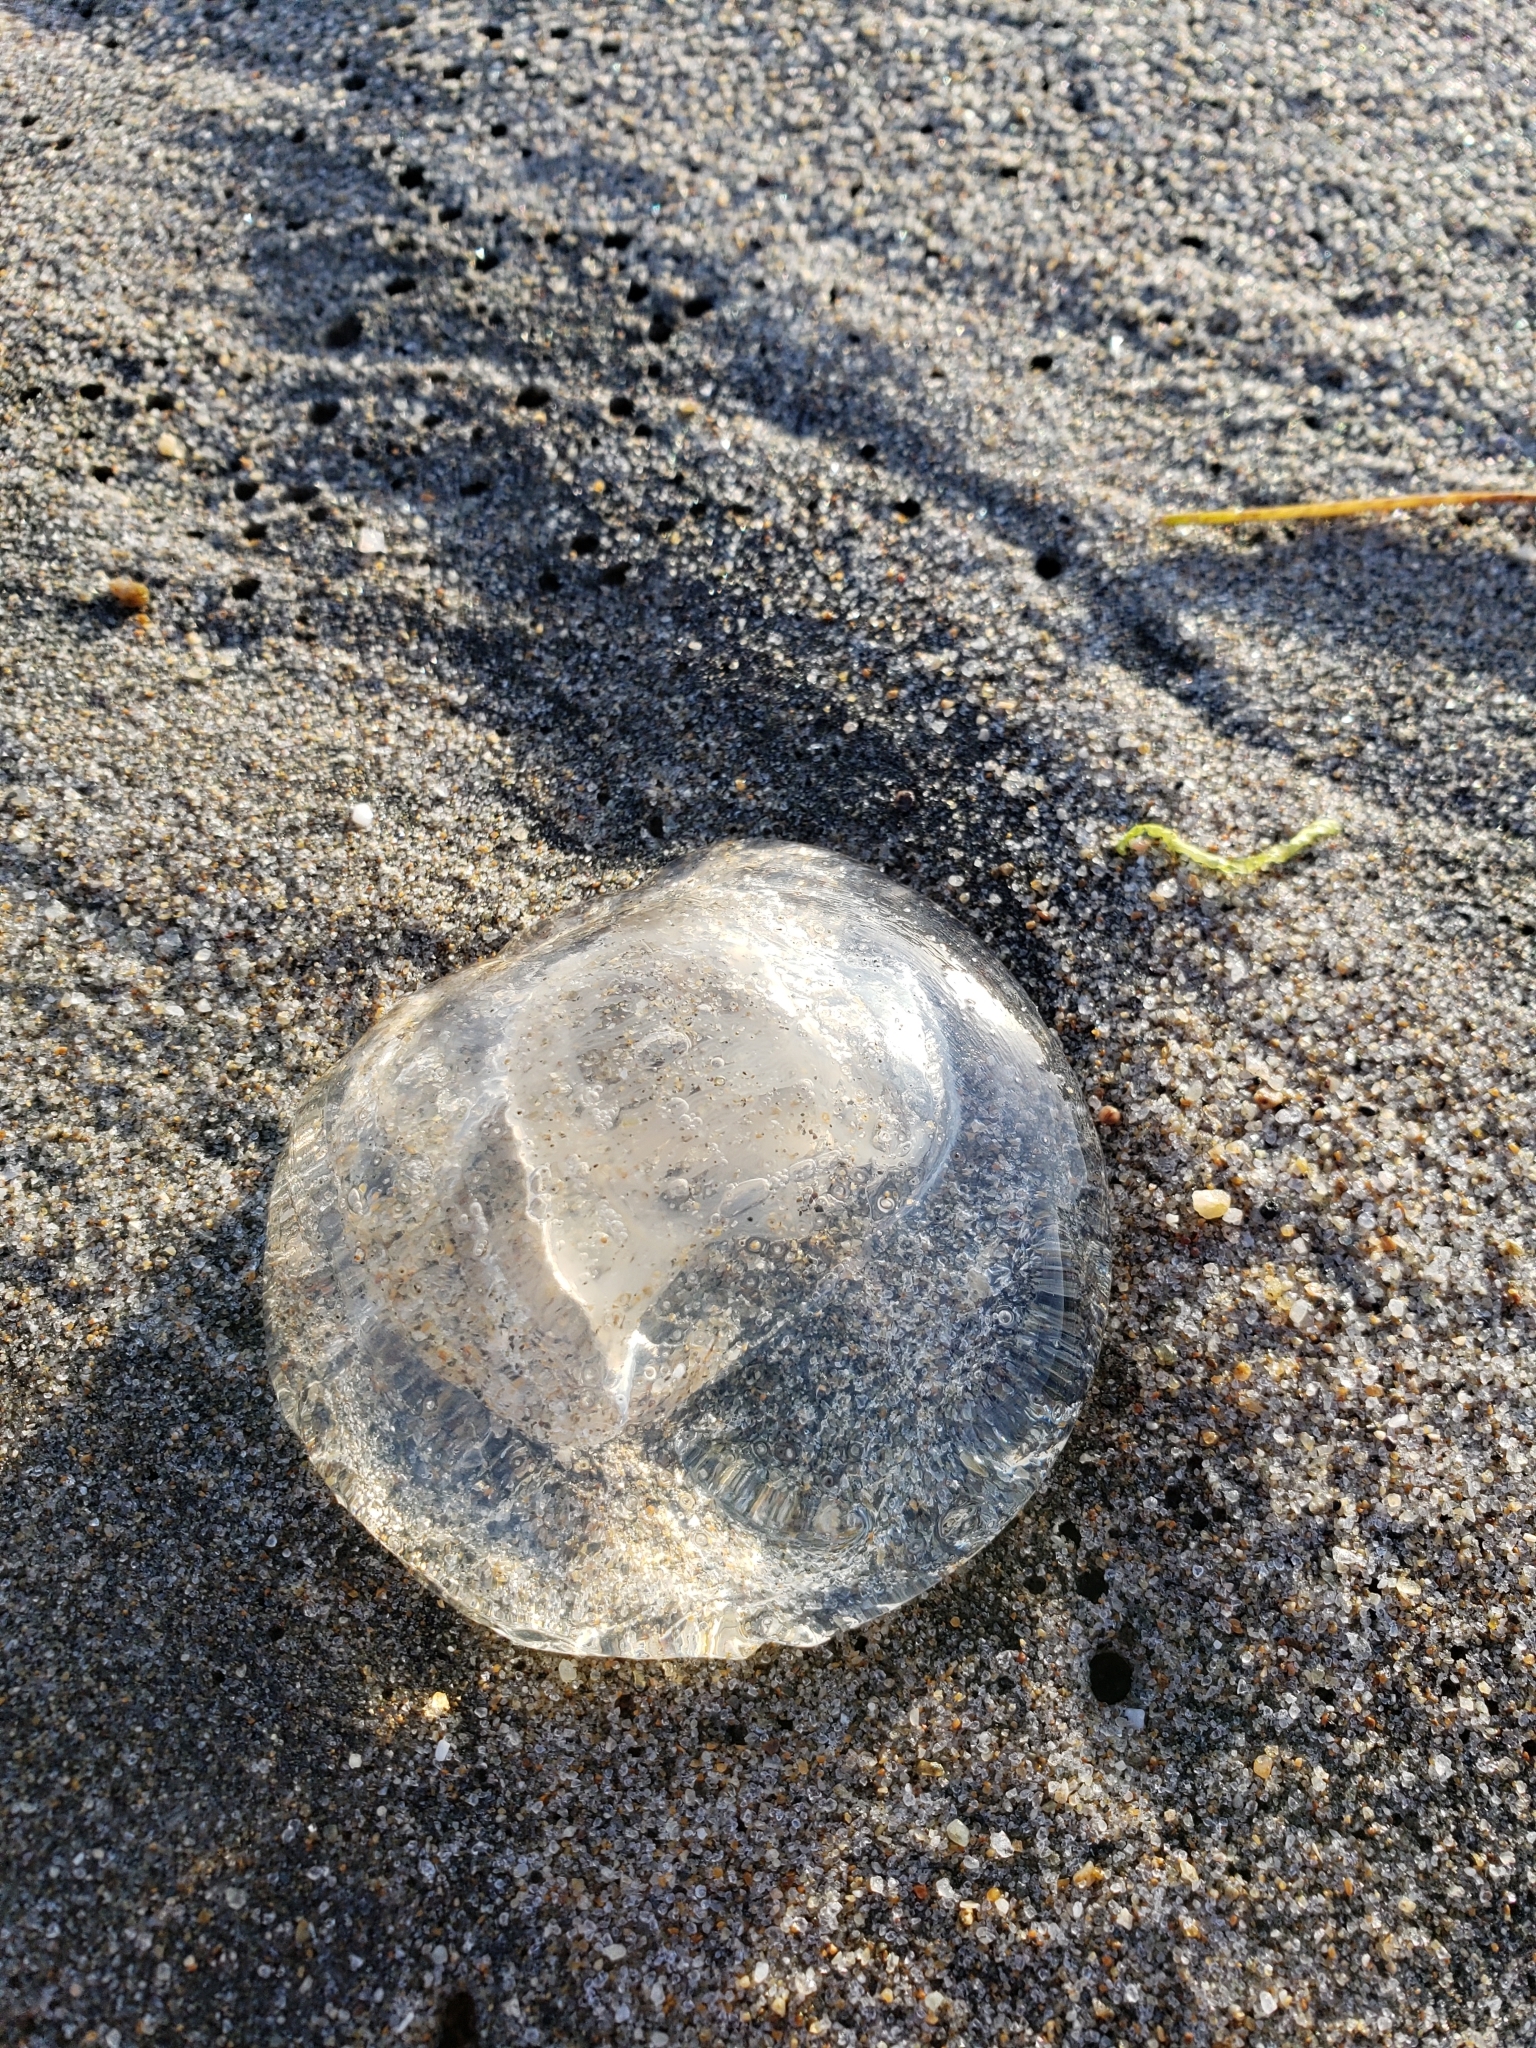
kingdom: Animalia
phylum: Cnidaria
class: Hydrozoa
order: Anthoathecata
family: Corynidae
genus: Scrippsia
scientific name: Scrippsia pacifica
